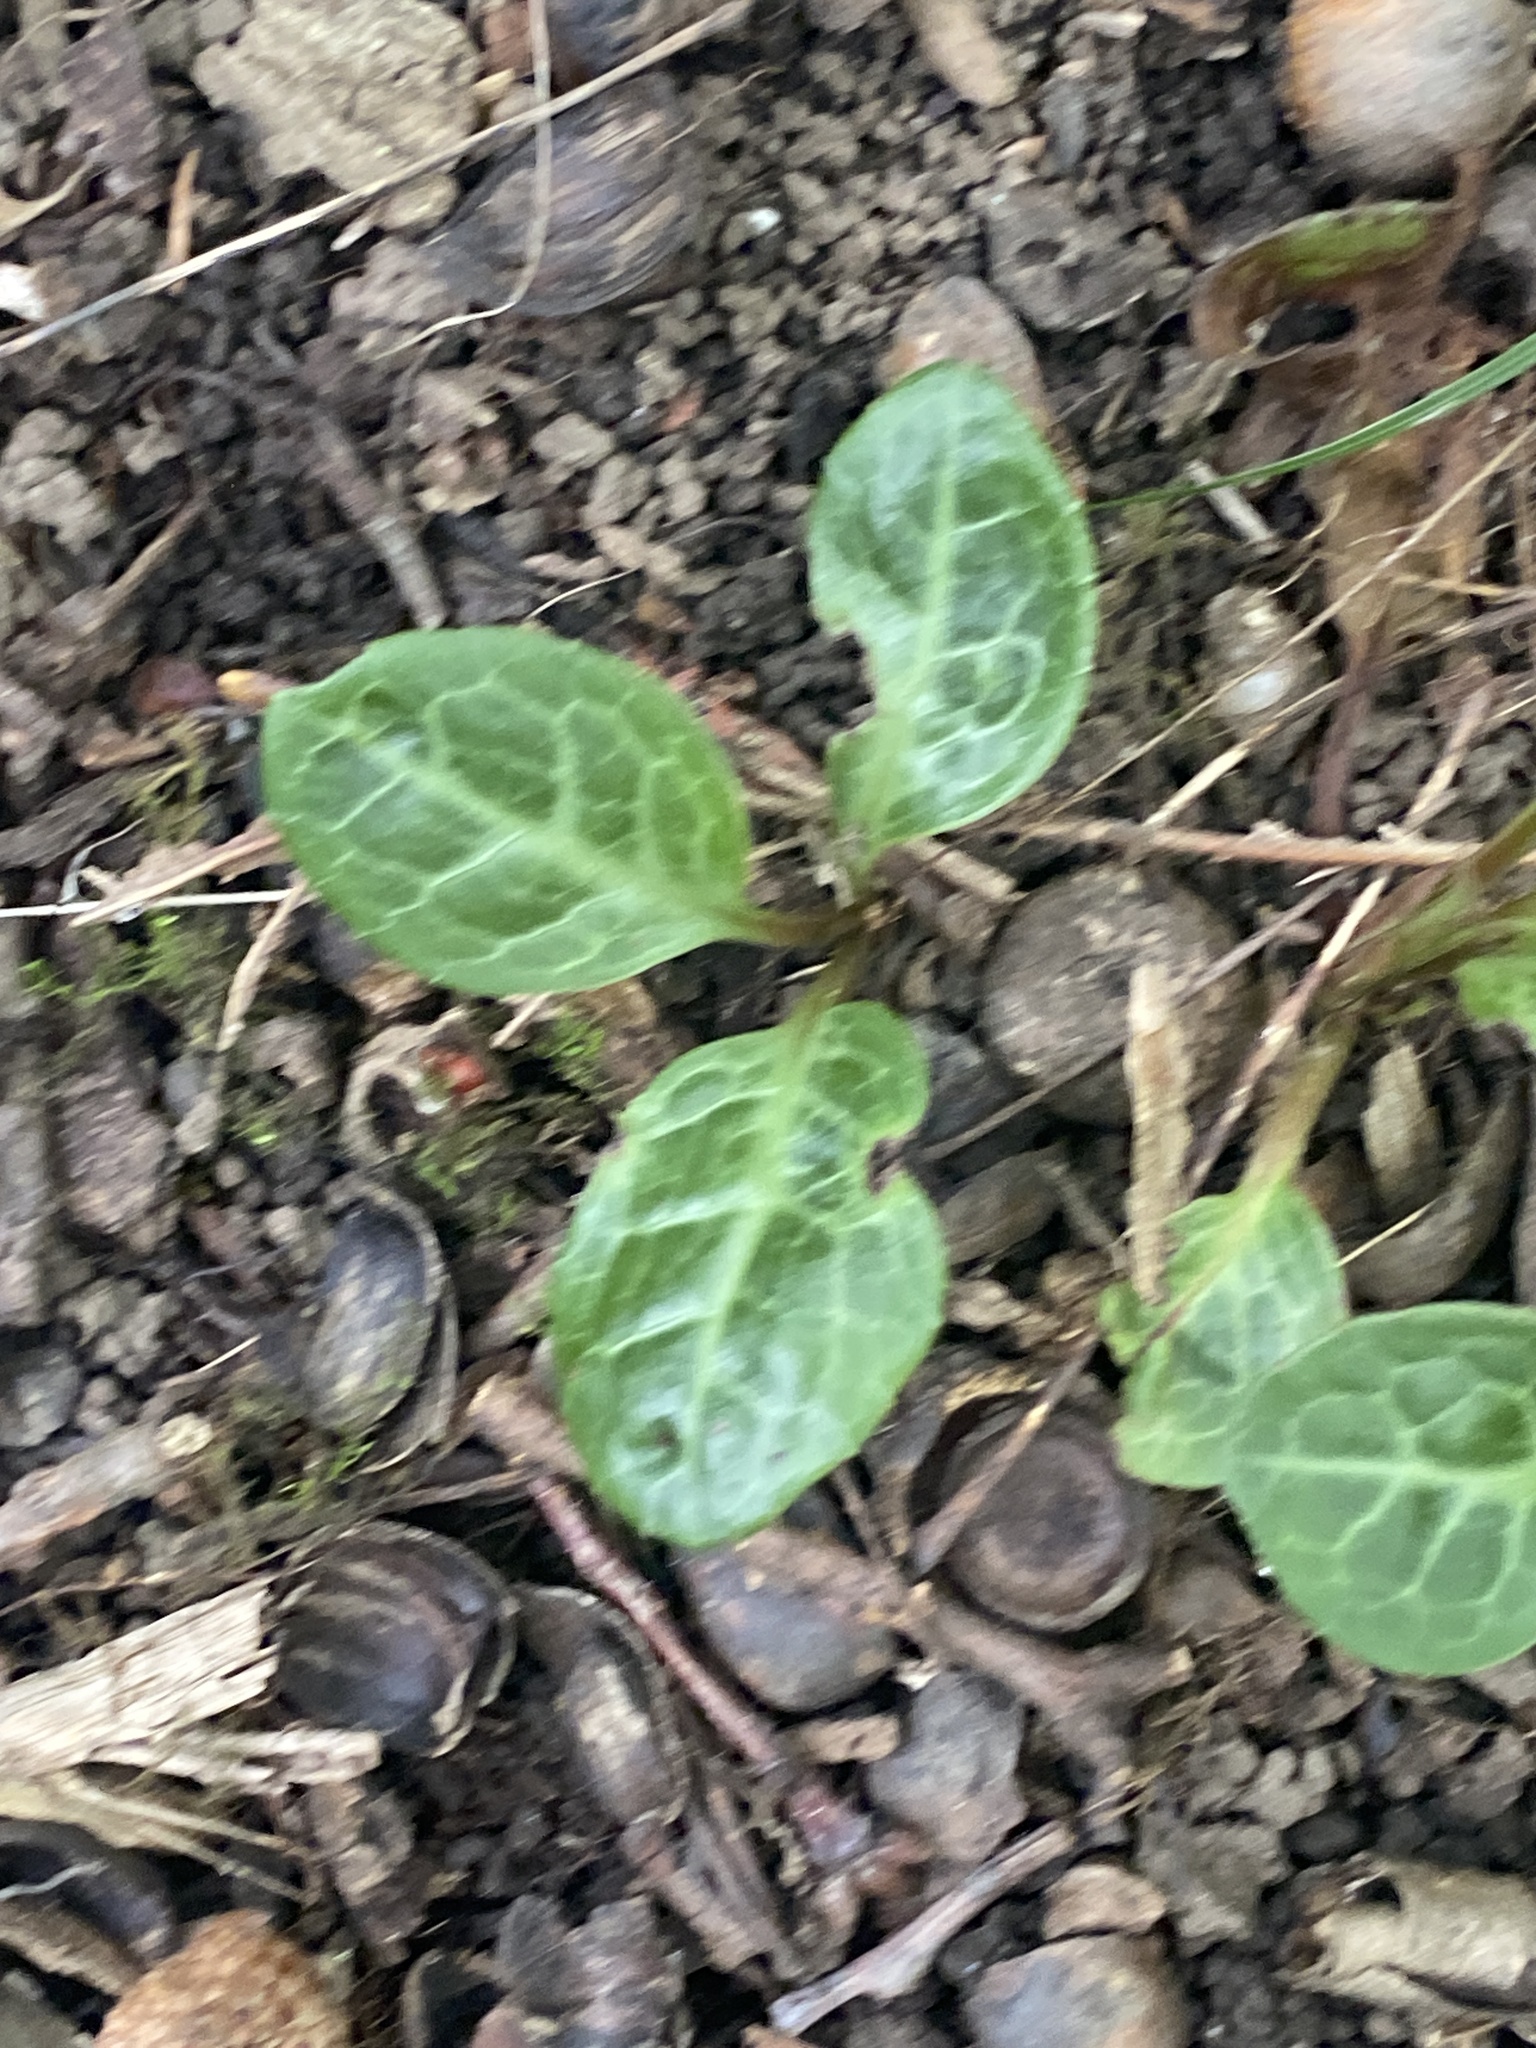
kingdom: Plantae
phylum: Tracheophyta
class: Magnoliopsida
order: Ericales
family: Ericaceae
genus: Pyrola
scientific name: Pyrola americana
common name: American wintergreen
